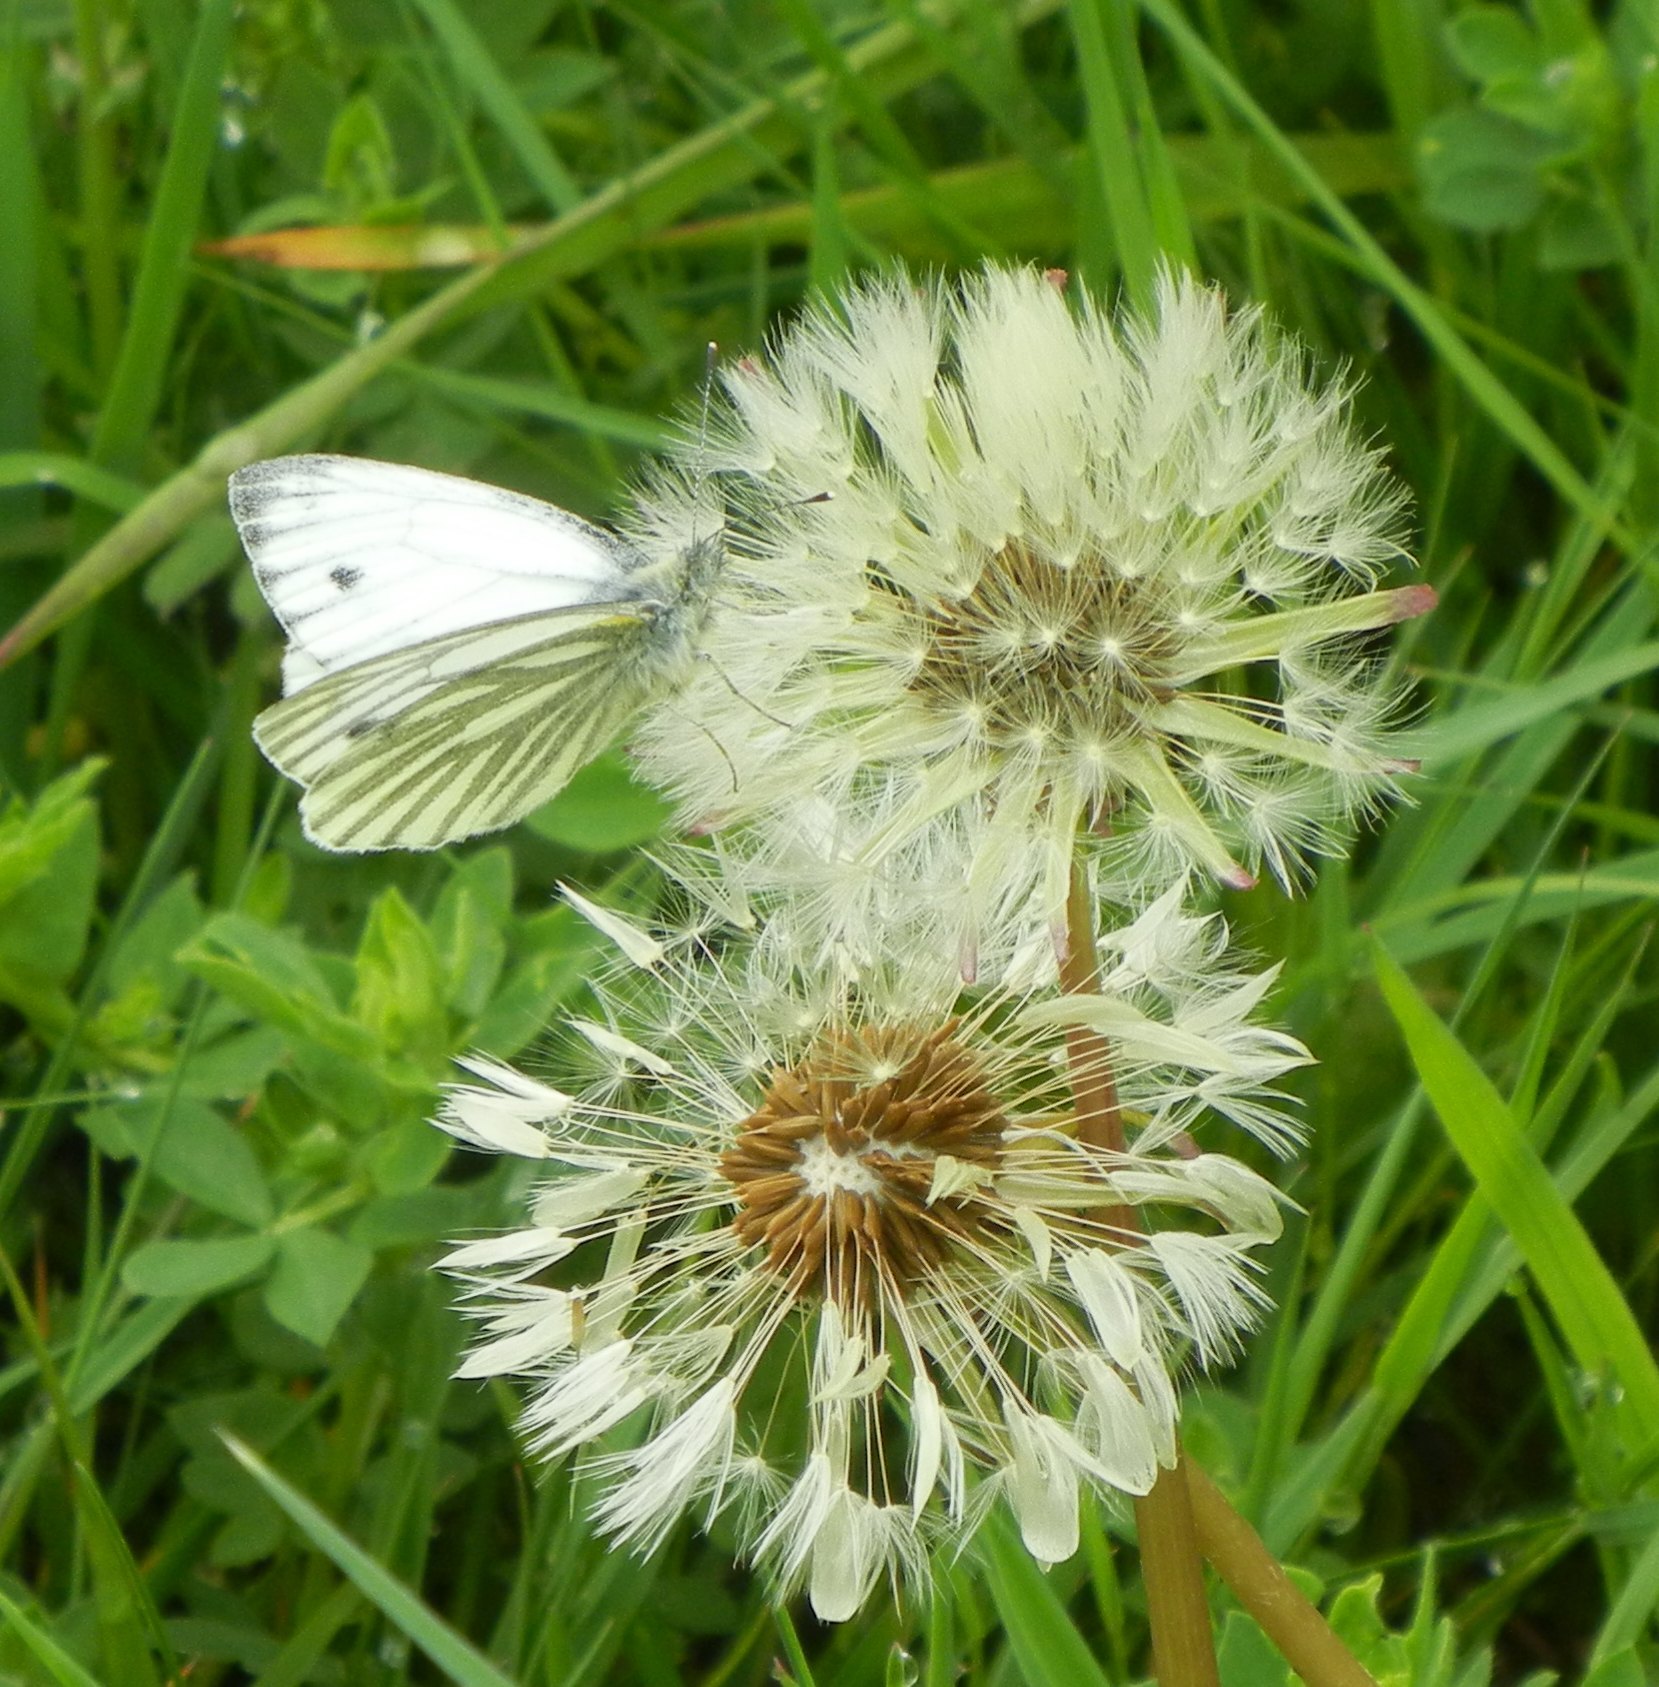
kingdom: Animalia
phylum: Arthropoda
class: Insecta
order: Lepidoptera
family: Pieridae
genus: Pieris
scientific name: Pieris napi
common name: Green-veined white
